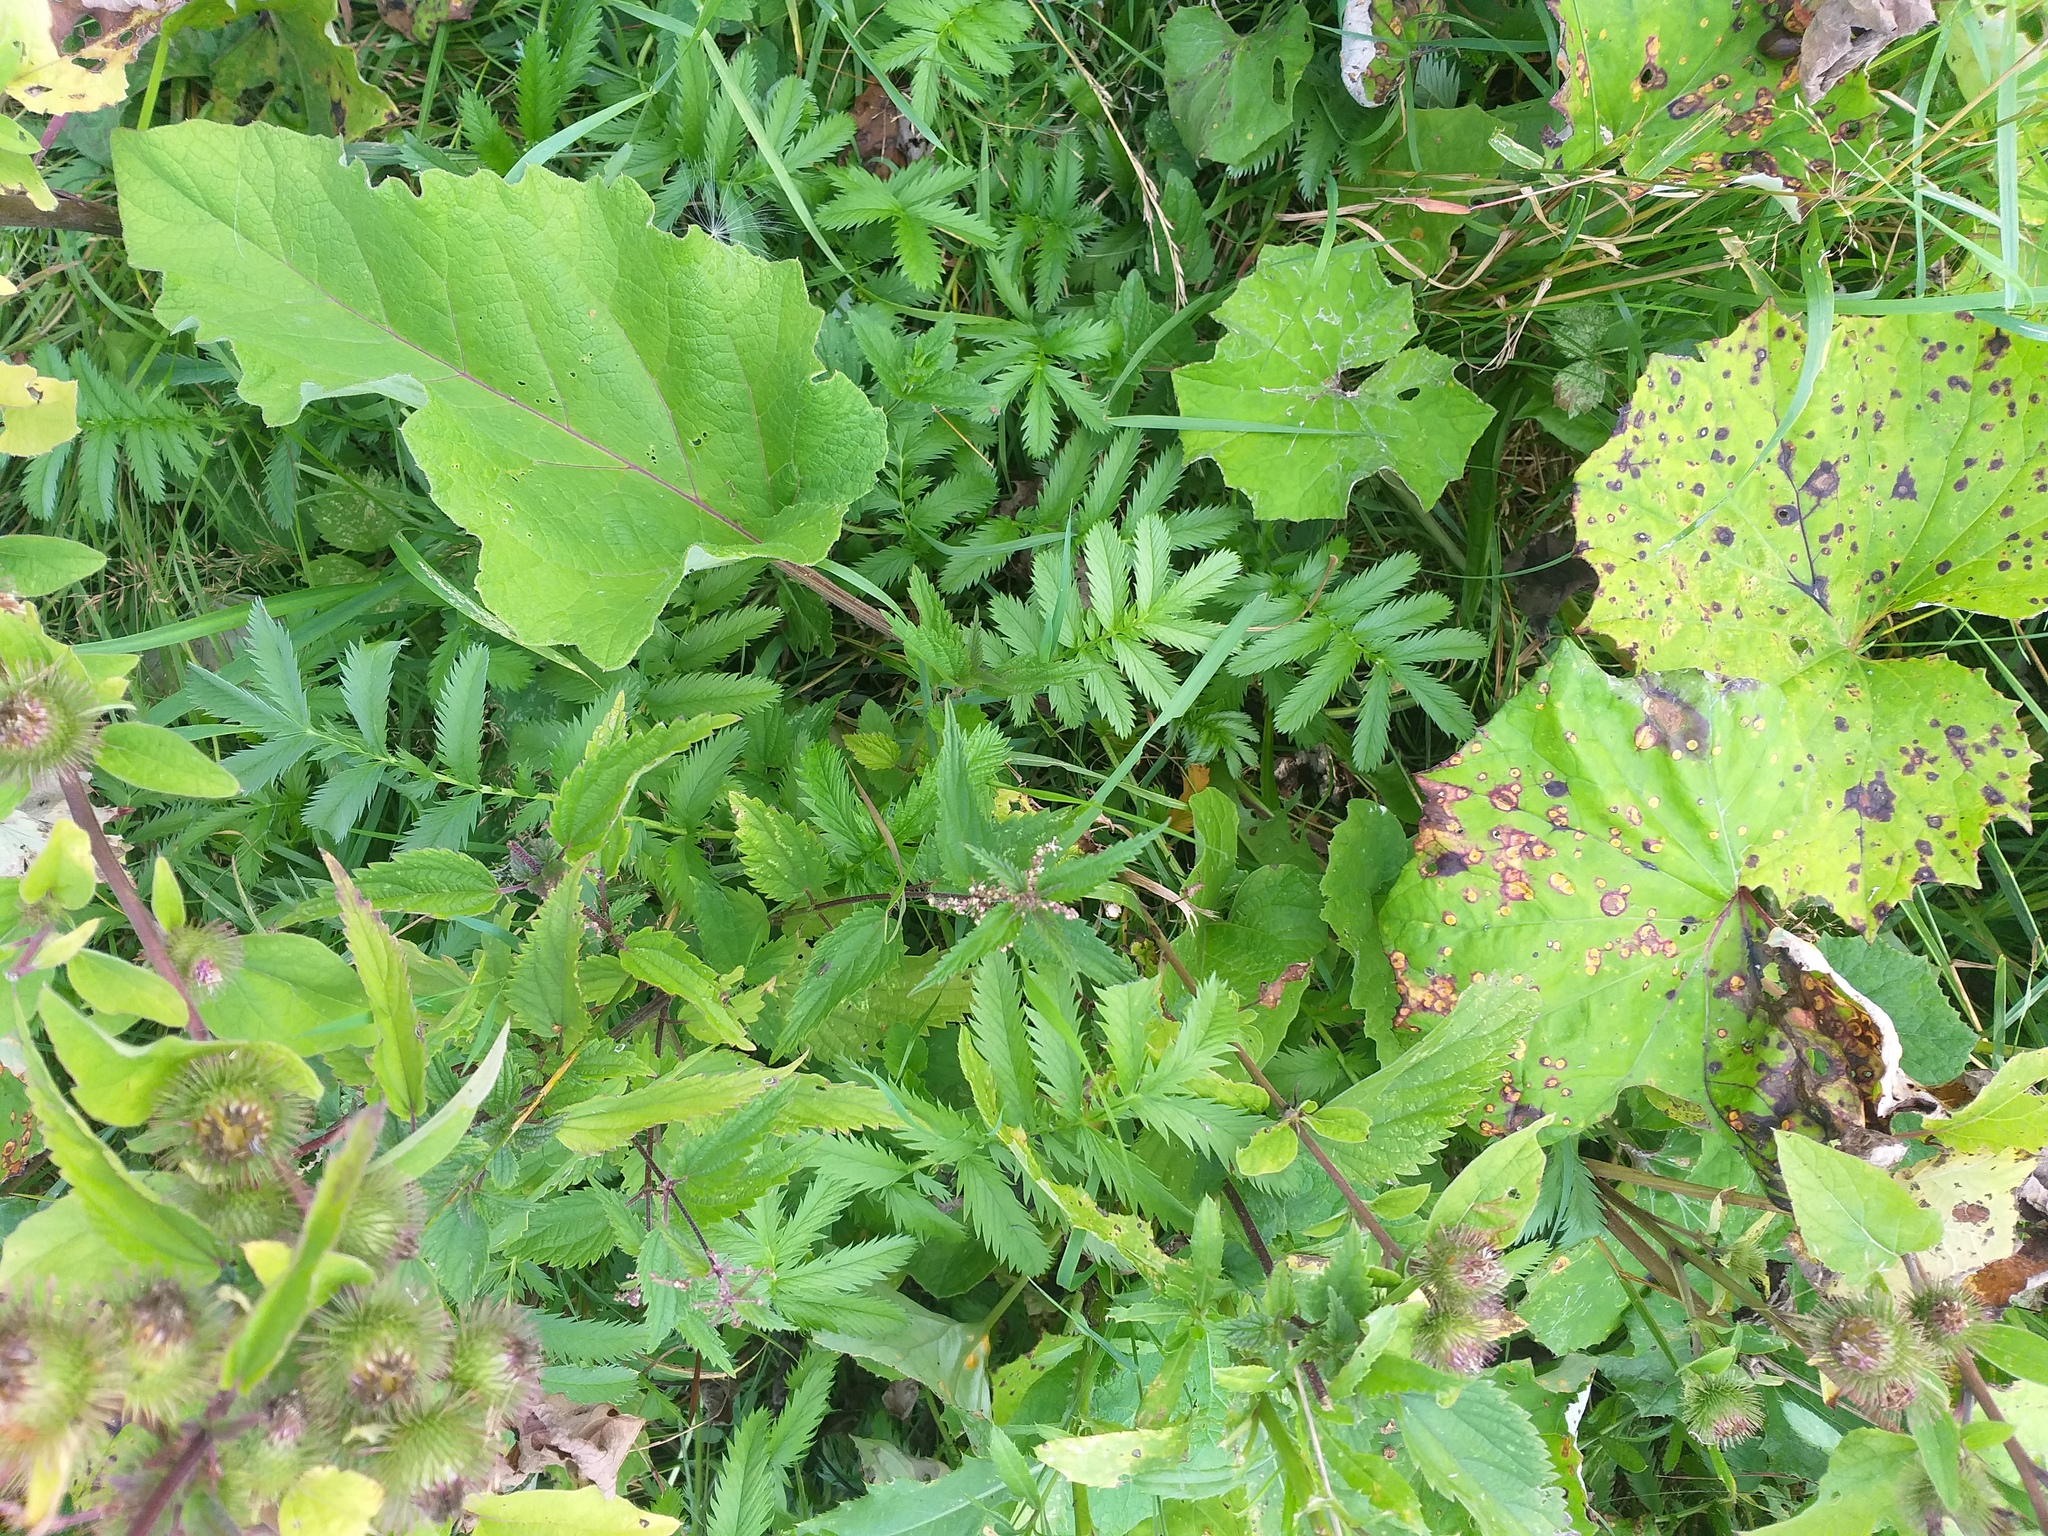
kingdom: Plantae
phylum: Tracheophyta
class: Magnoliopsida
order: Rosales
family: Urticaceae
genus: Urtica
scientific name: Urtica dioica
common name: Common nettle
